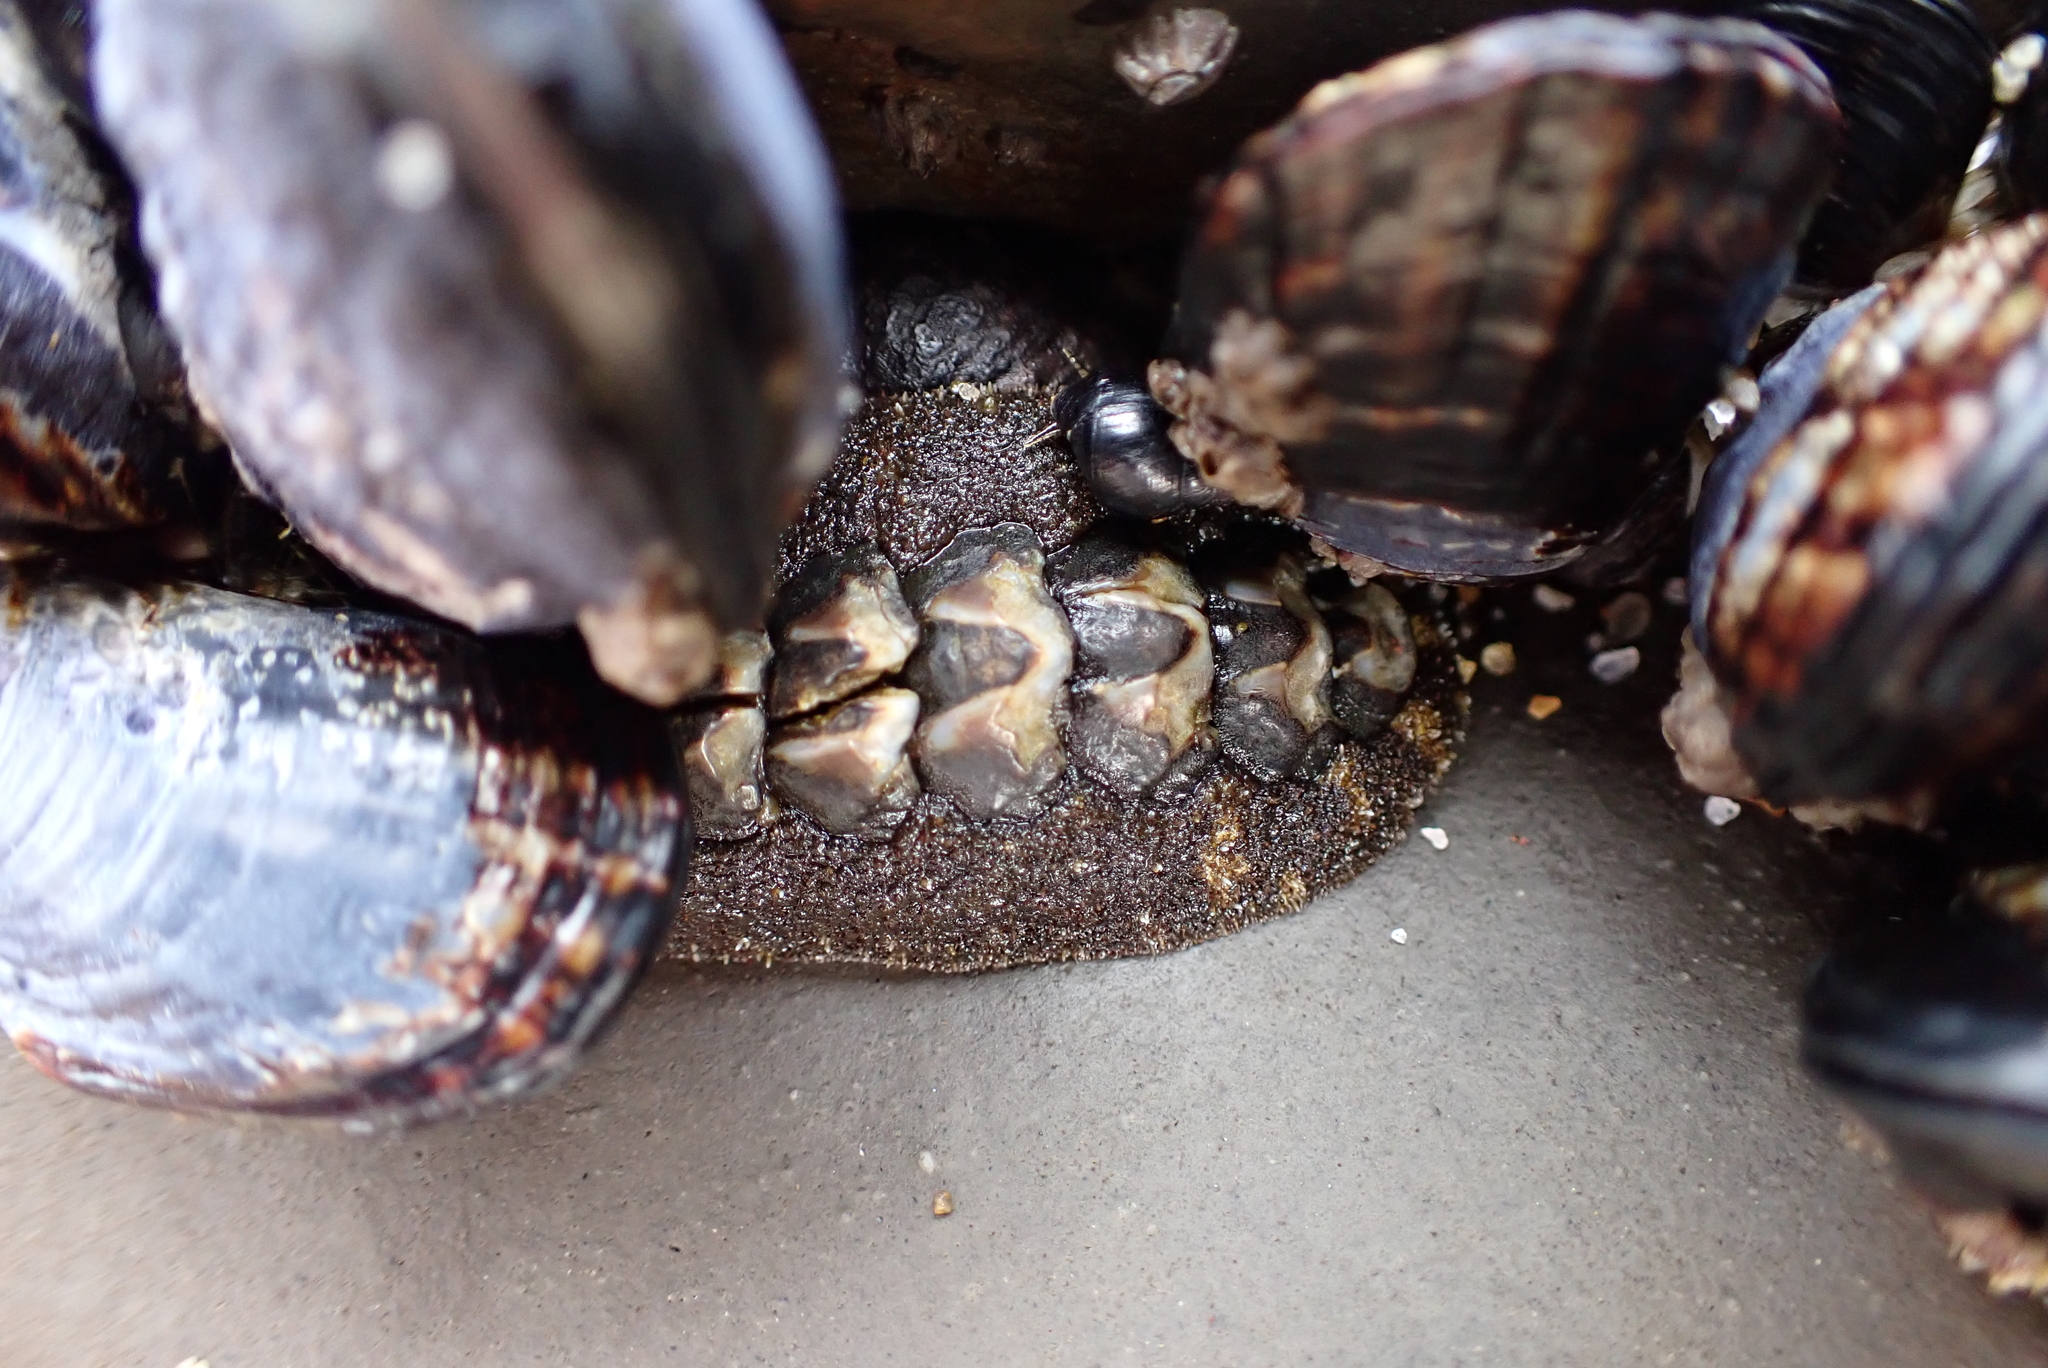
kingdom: Animalia
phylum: Mollusca
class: Polyplacophora
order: Chitonida
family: Tonicellidae
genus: Nuttallina
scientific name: Nuttallina californica
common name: California nuttall chiton
